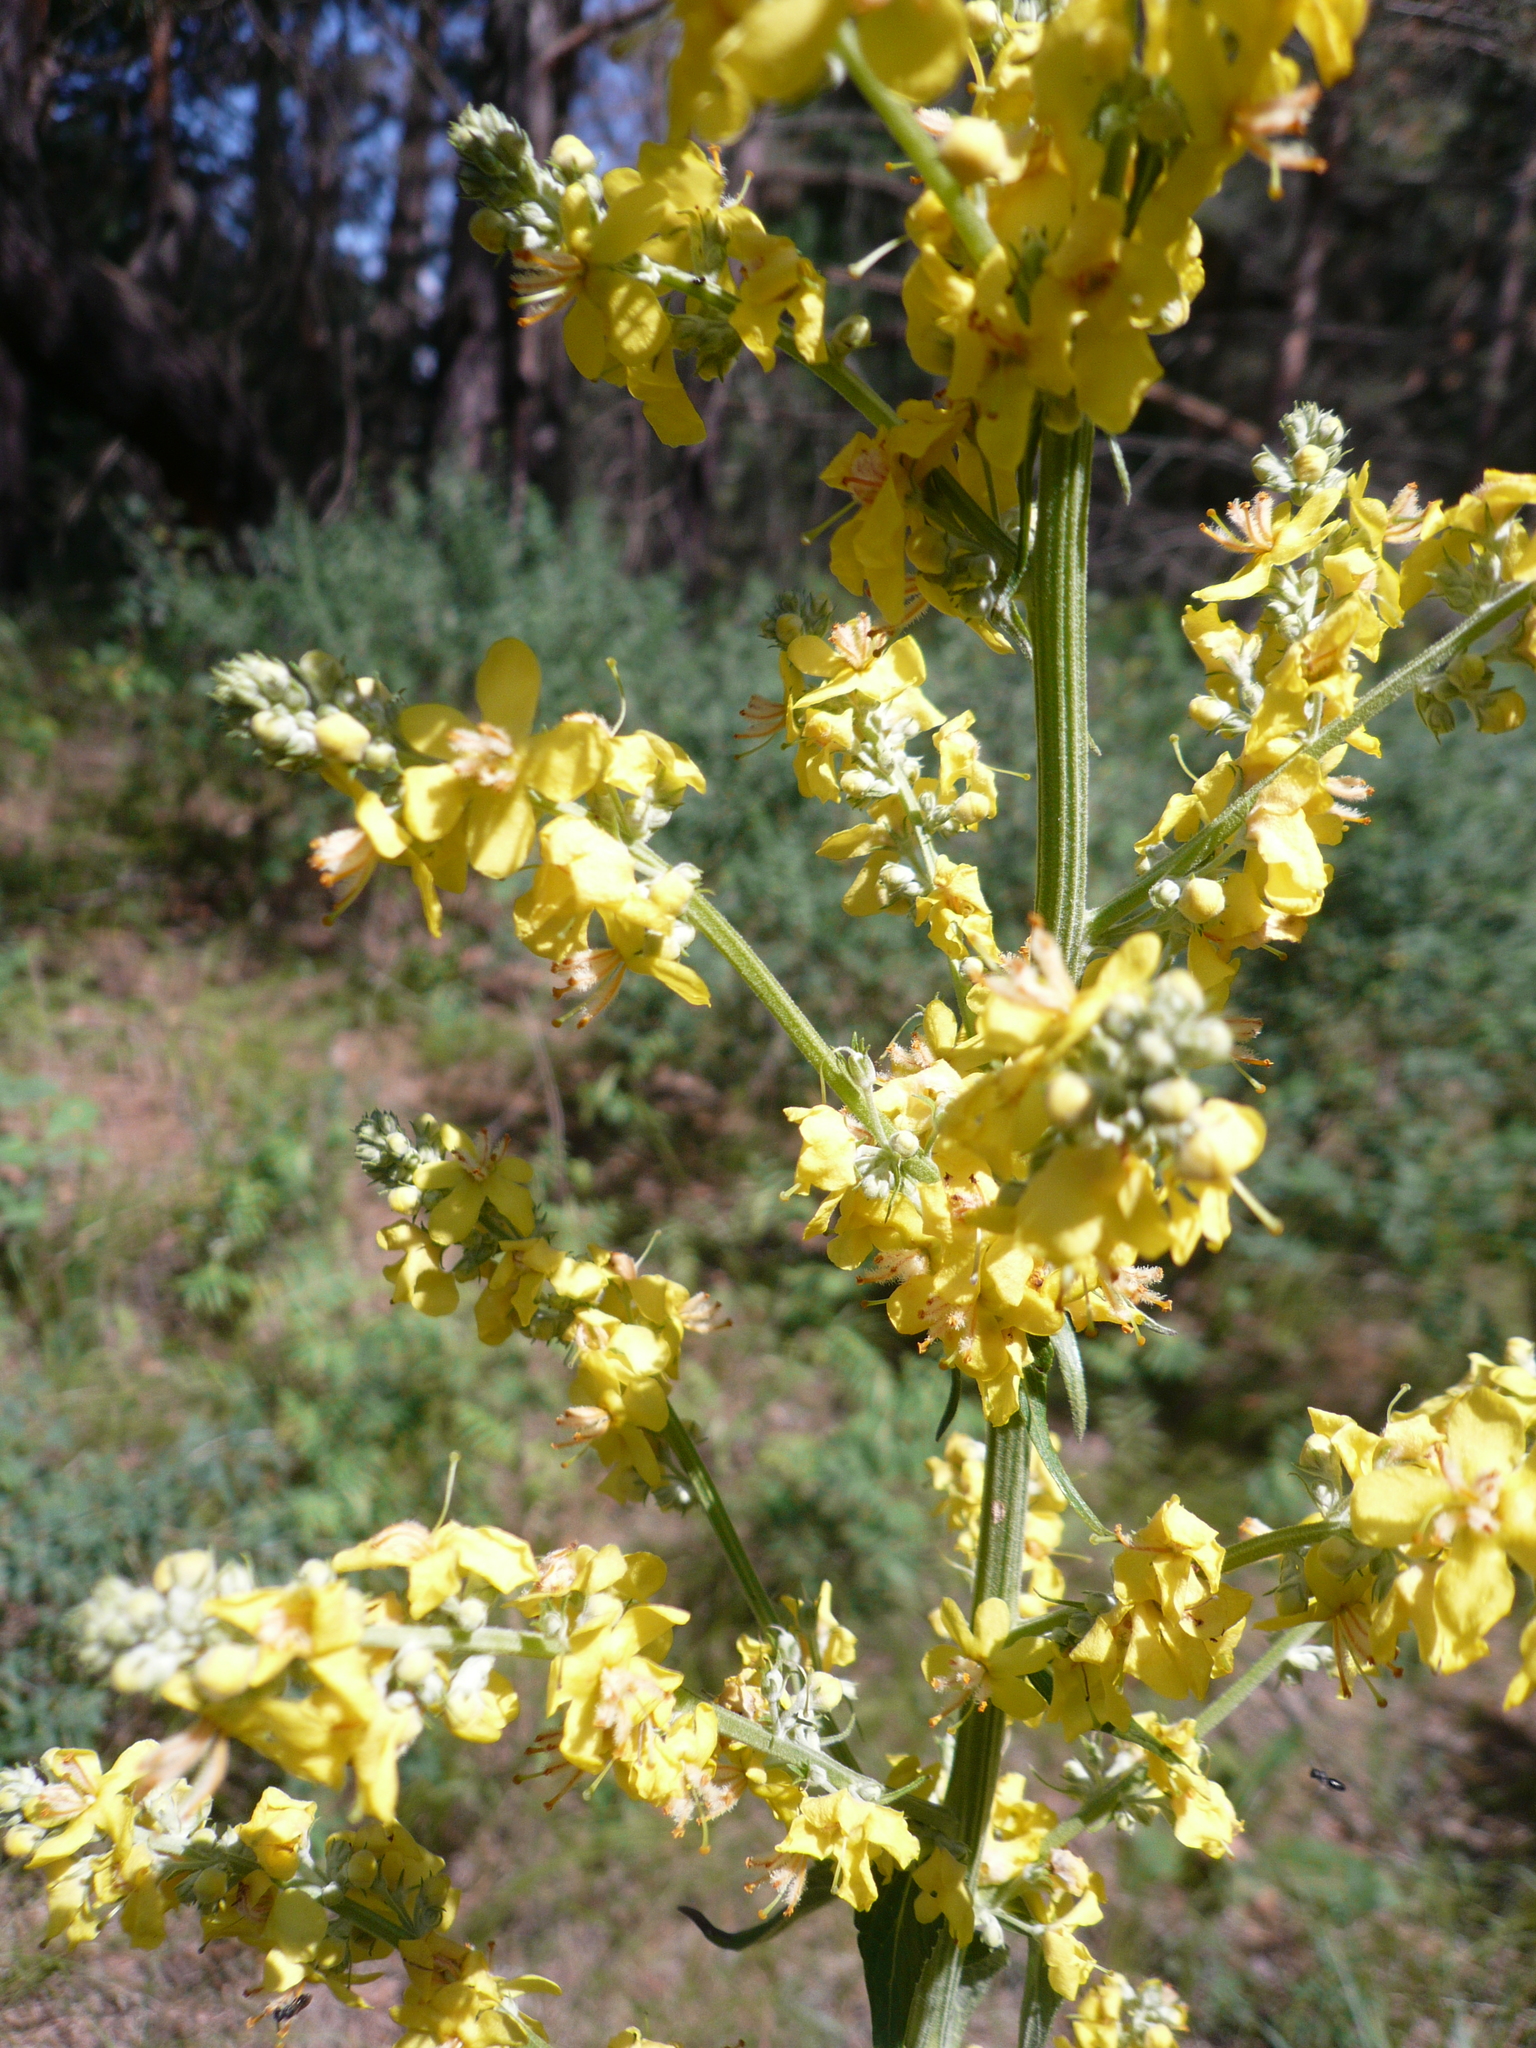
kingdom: Plantae
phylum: Tracheophyta
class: Magnoliopsida
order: Lamiales
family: Scrophulariaceae
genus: Verbascum
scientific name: Verbascum lychnitis
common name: White mullein
